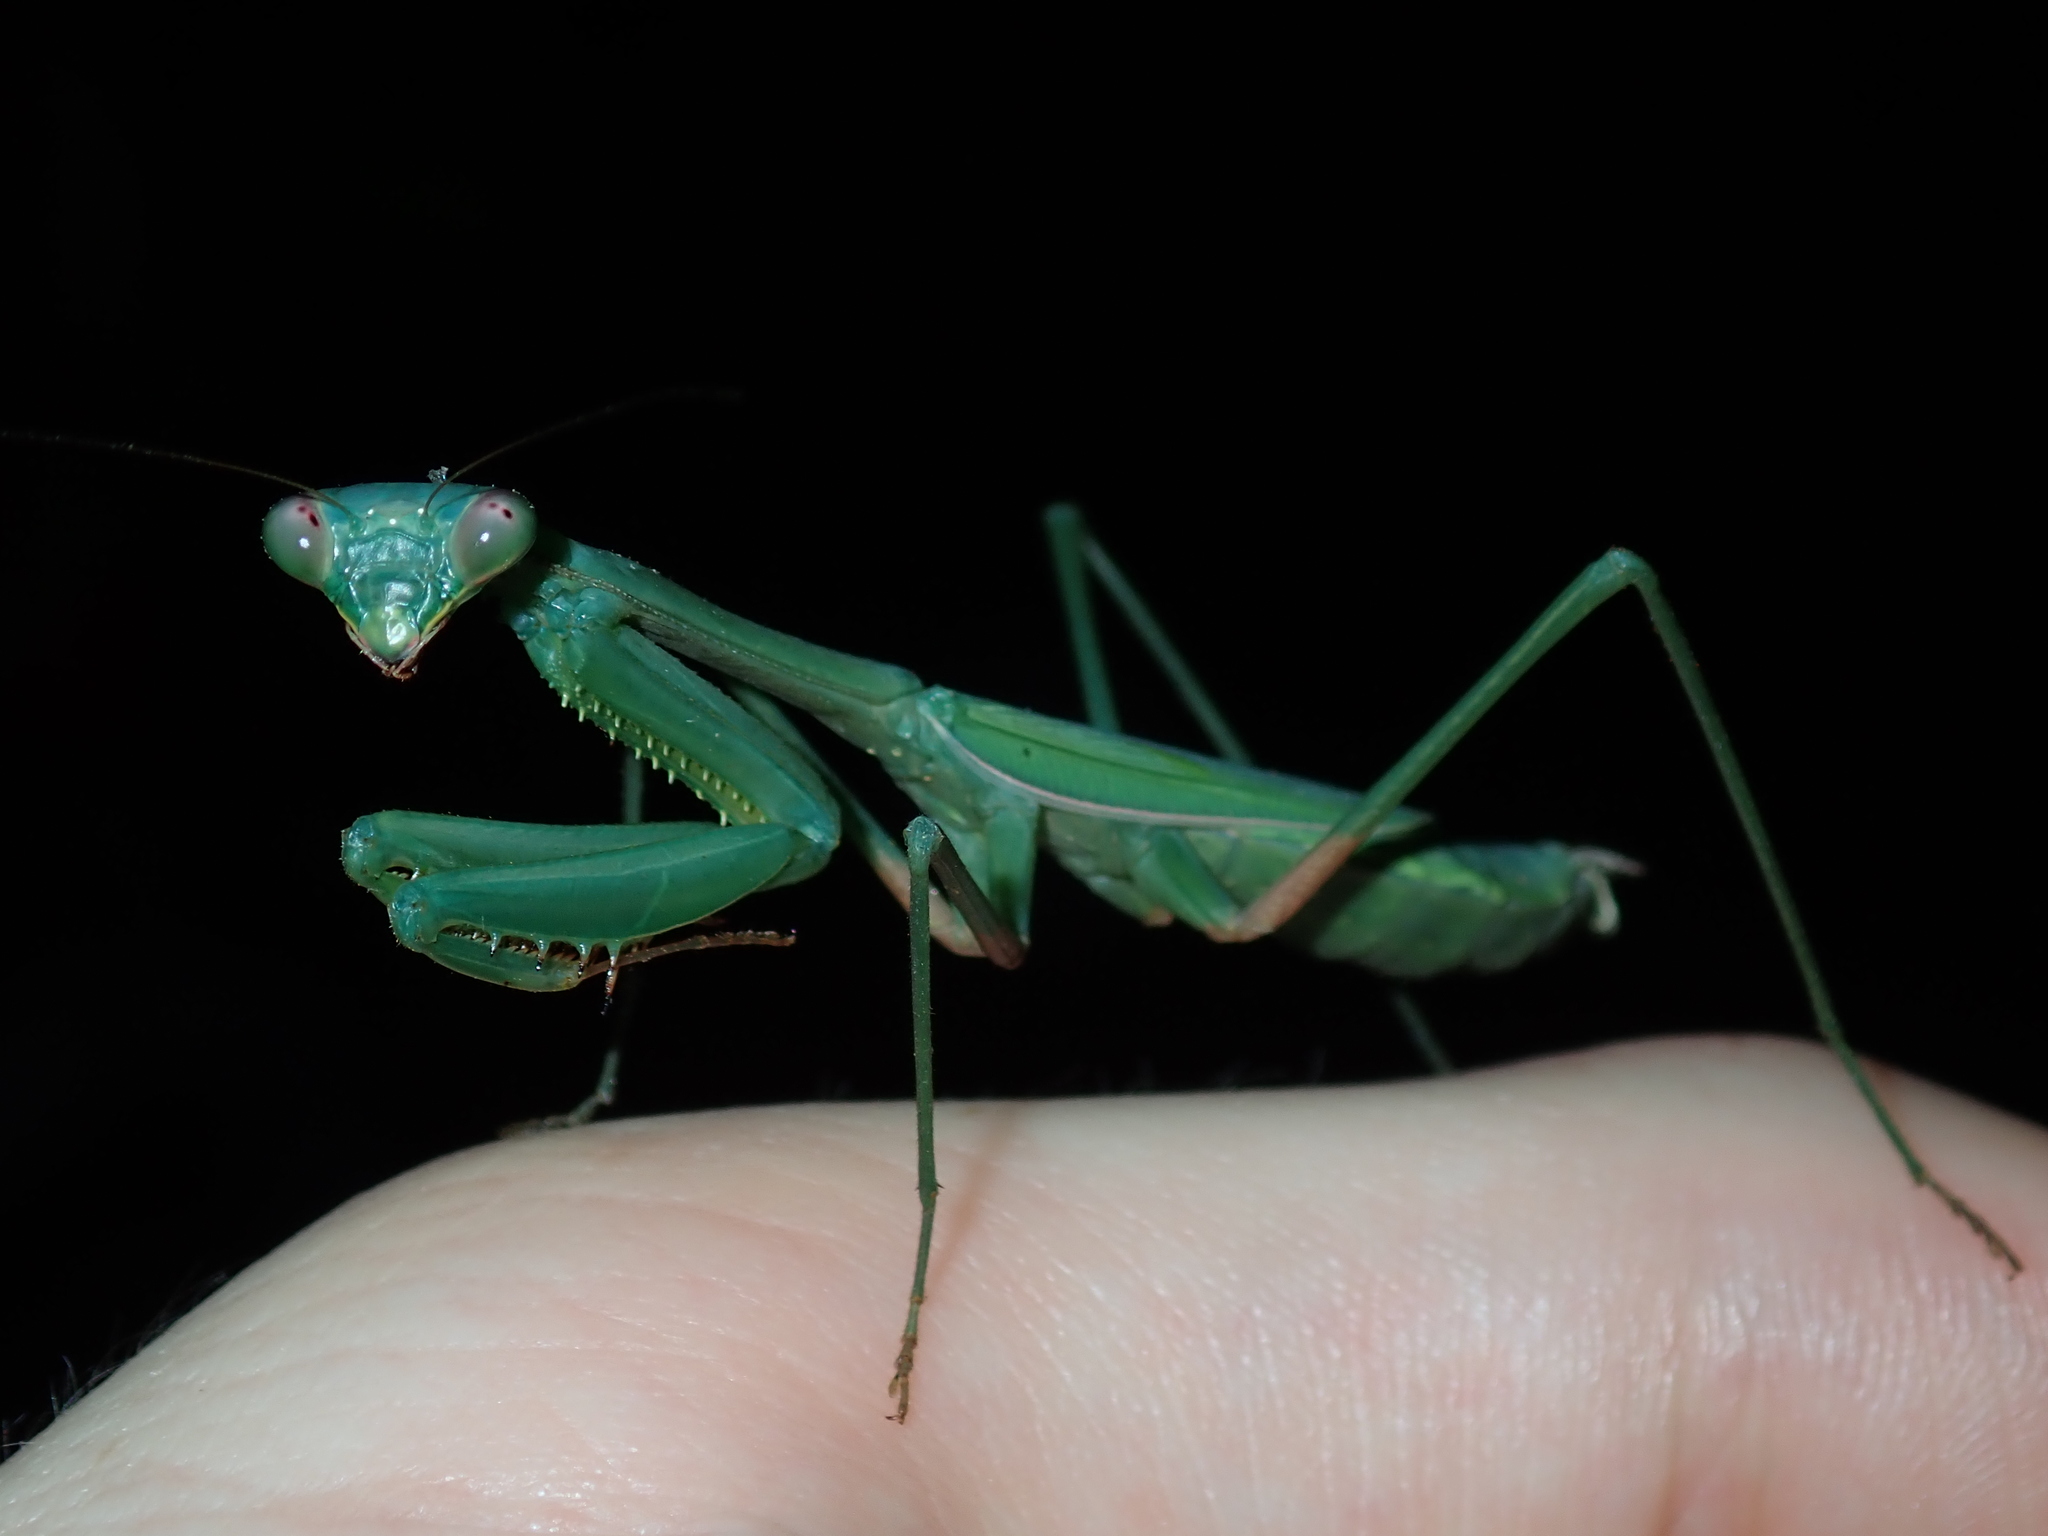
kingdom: Animalia
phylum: Arthropoda
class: Insecta
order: Mantodea
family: Mantidae
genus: Pseudomantis
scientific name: Pseudomantis albofimbriata
